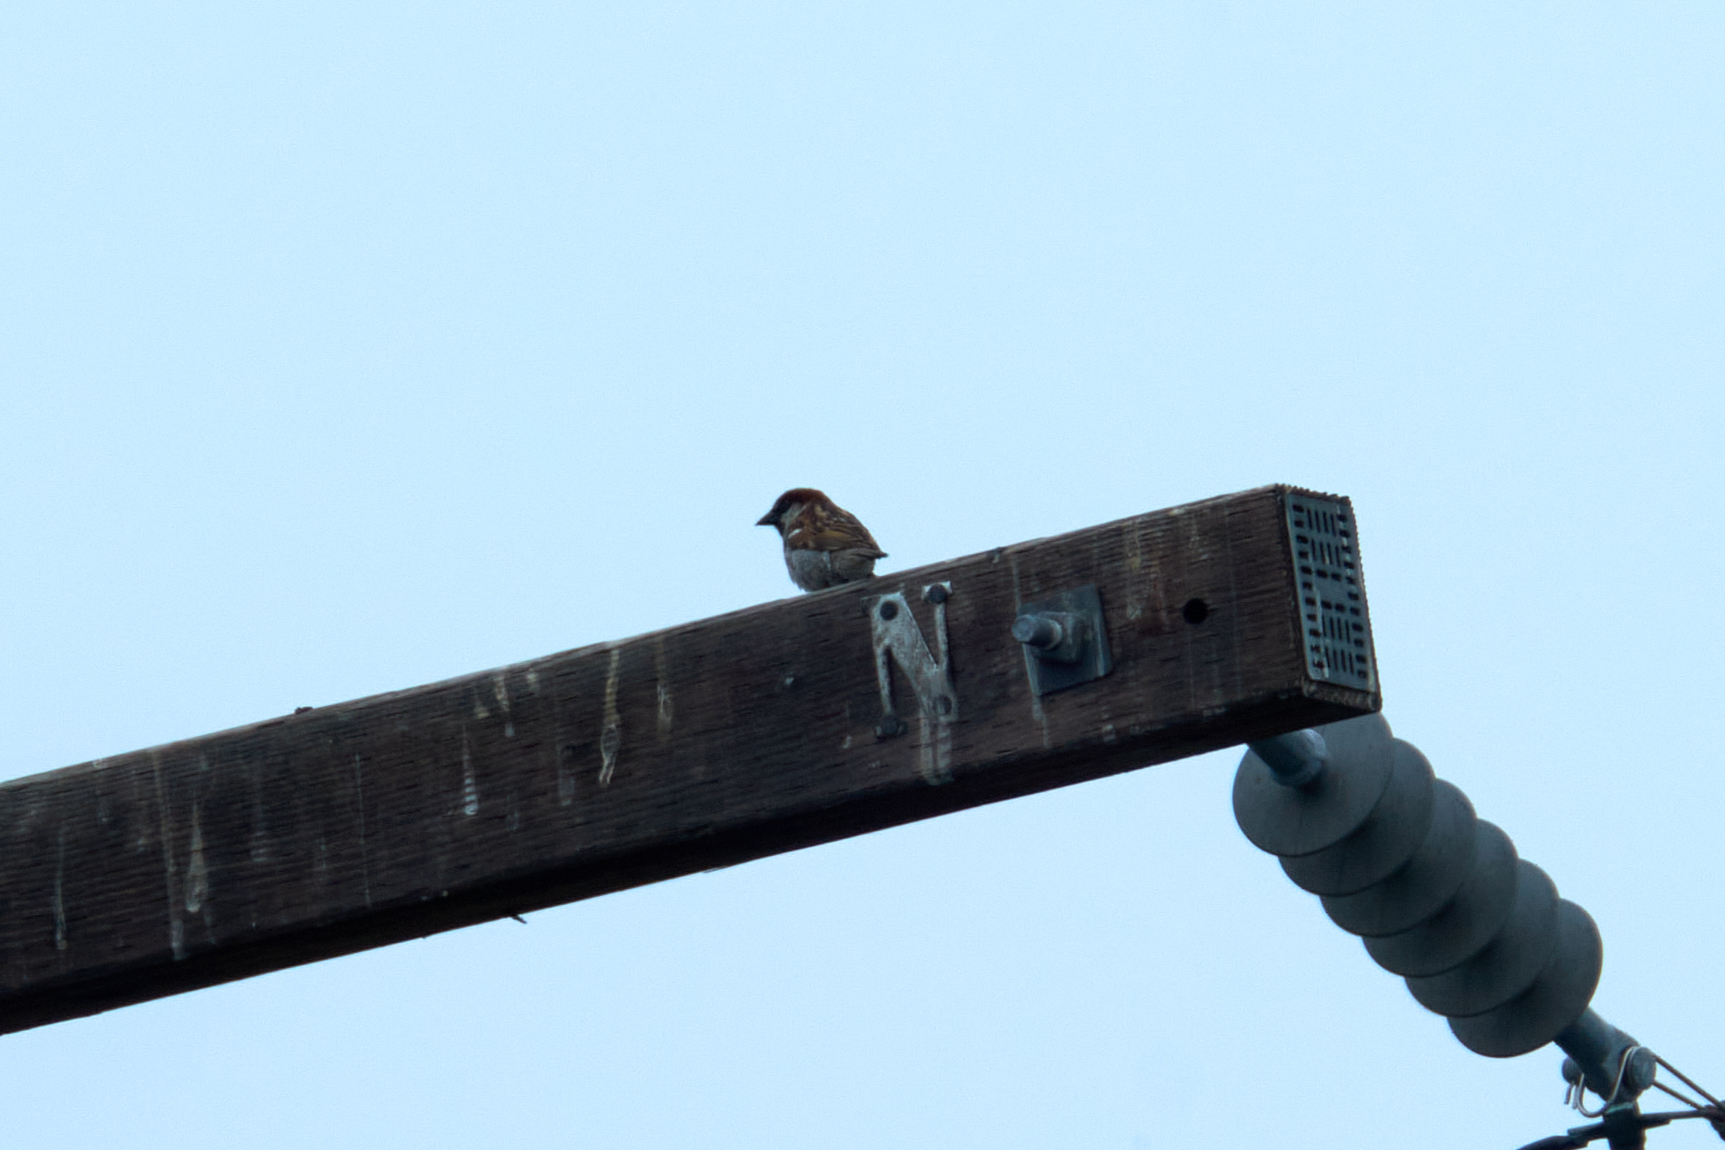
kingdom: Animalia
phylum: Chordata
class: Aves
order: Passeriformes
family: Passeridae
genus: Passer
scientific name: Passer domesticus
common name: House sparrow
